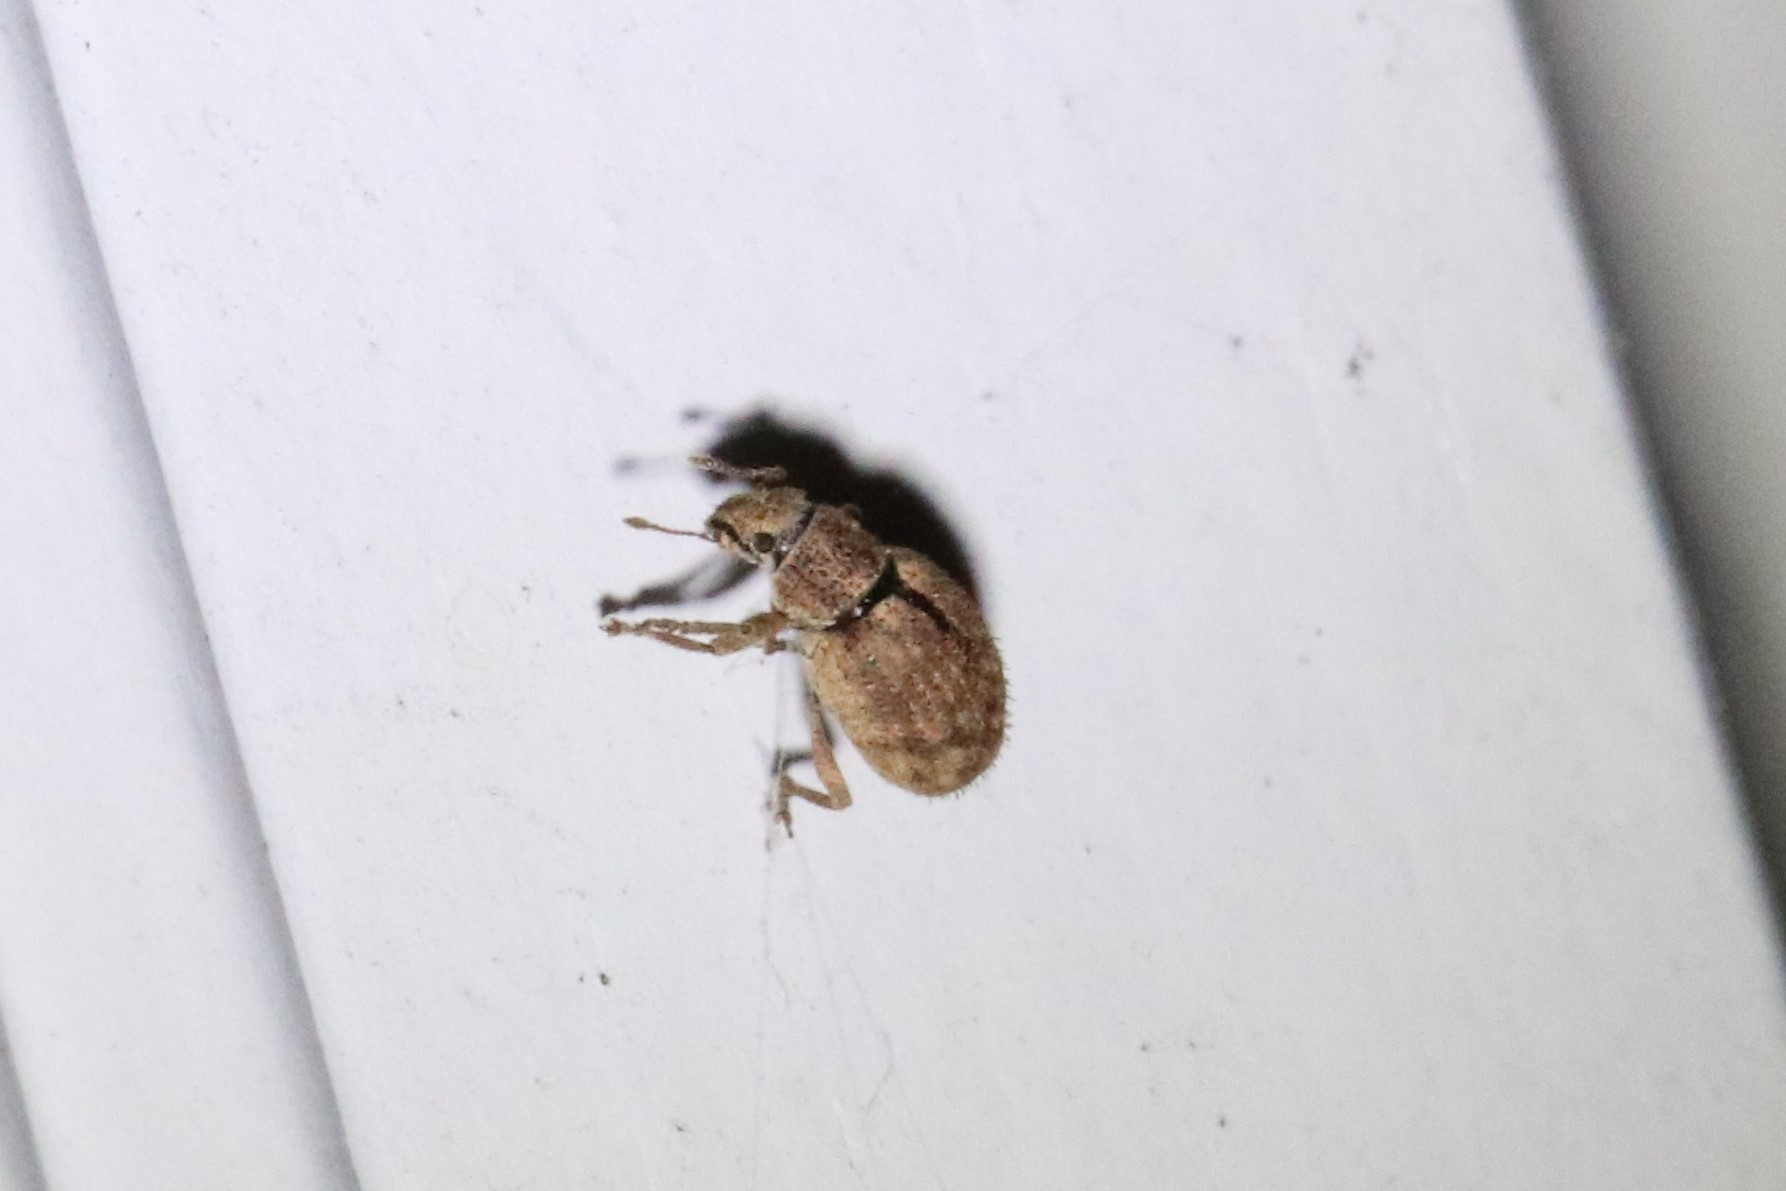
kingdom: Animalia
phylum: Arthropoda
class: Insecta
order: Coleoptera
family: Curculionidae
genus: Strophosoma
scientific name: Strophosoma melanogrammum
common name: Weevil
